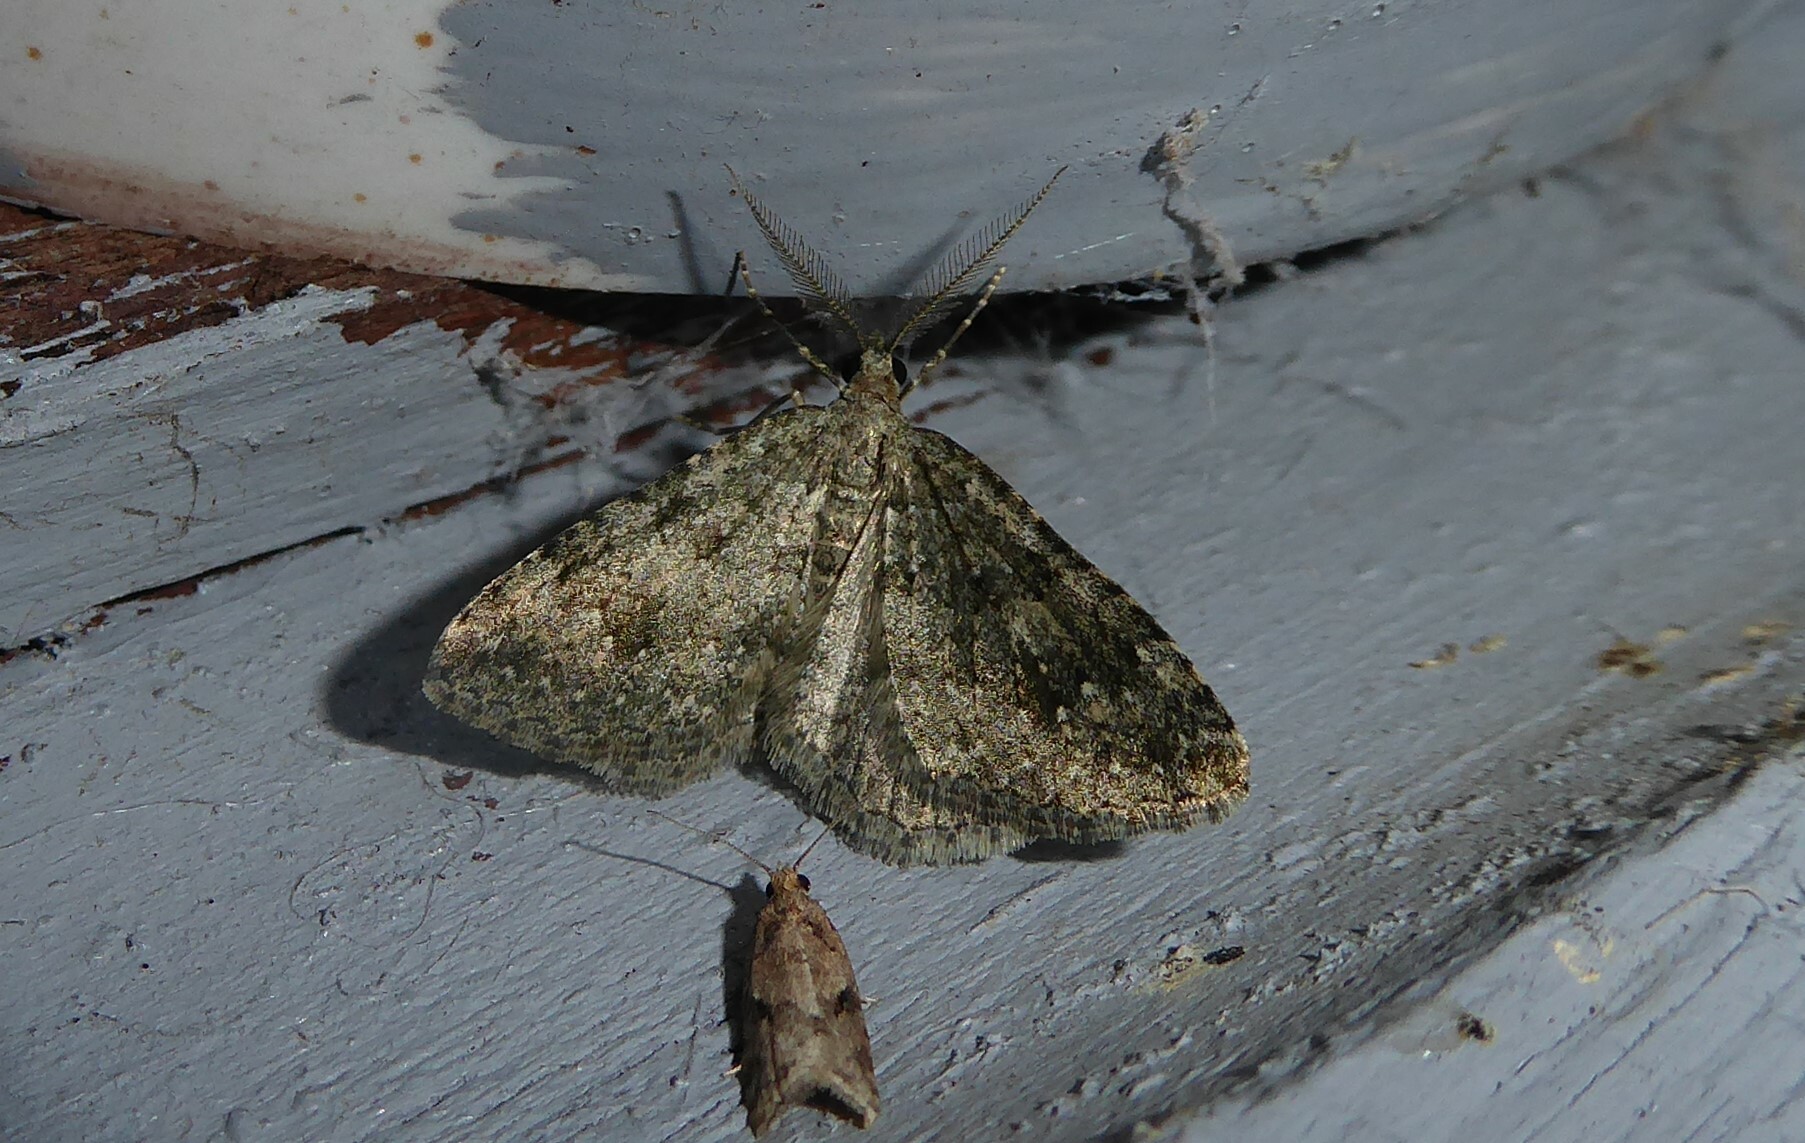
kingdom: Animalia
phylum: Arthropoda
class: Insecta
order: Lepidoptera
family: Geometridae
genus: Helastia
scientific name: Helastia corcularia
